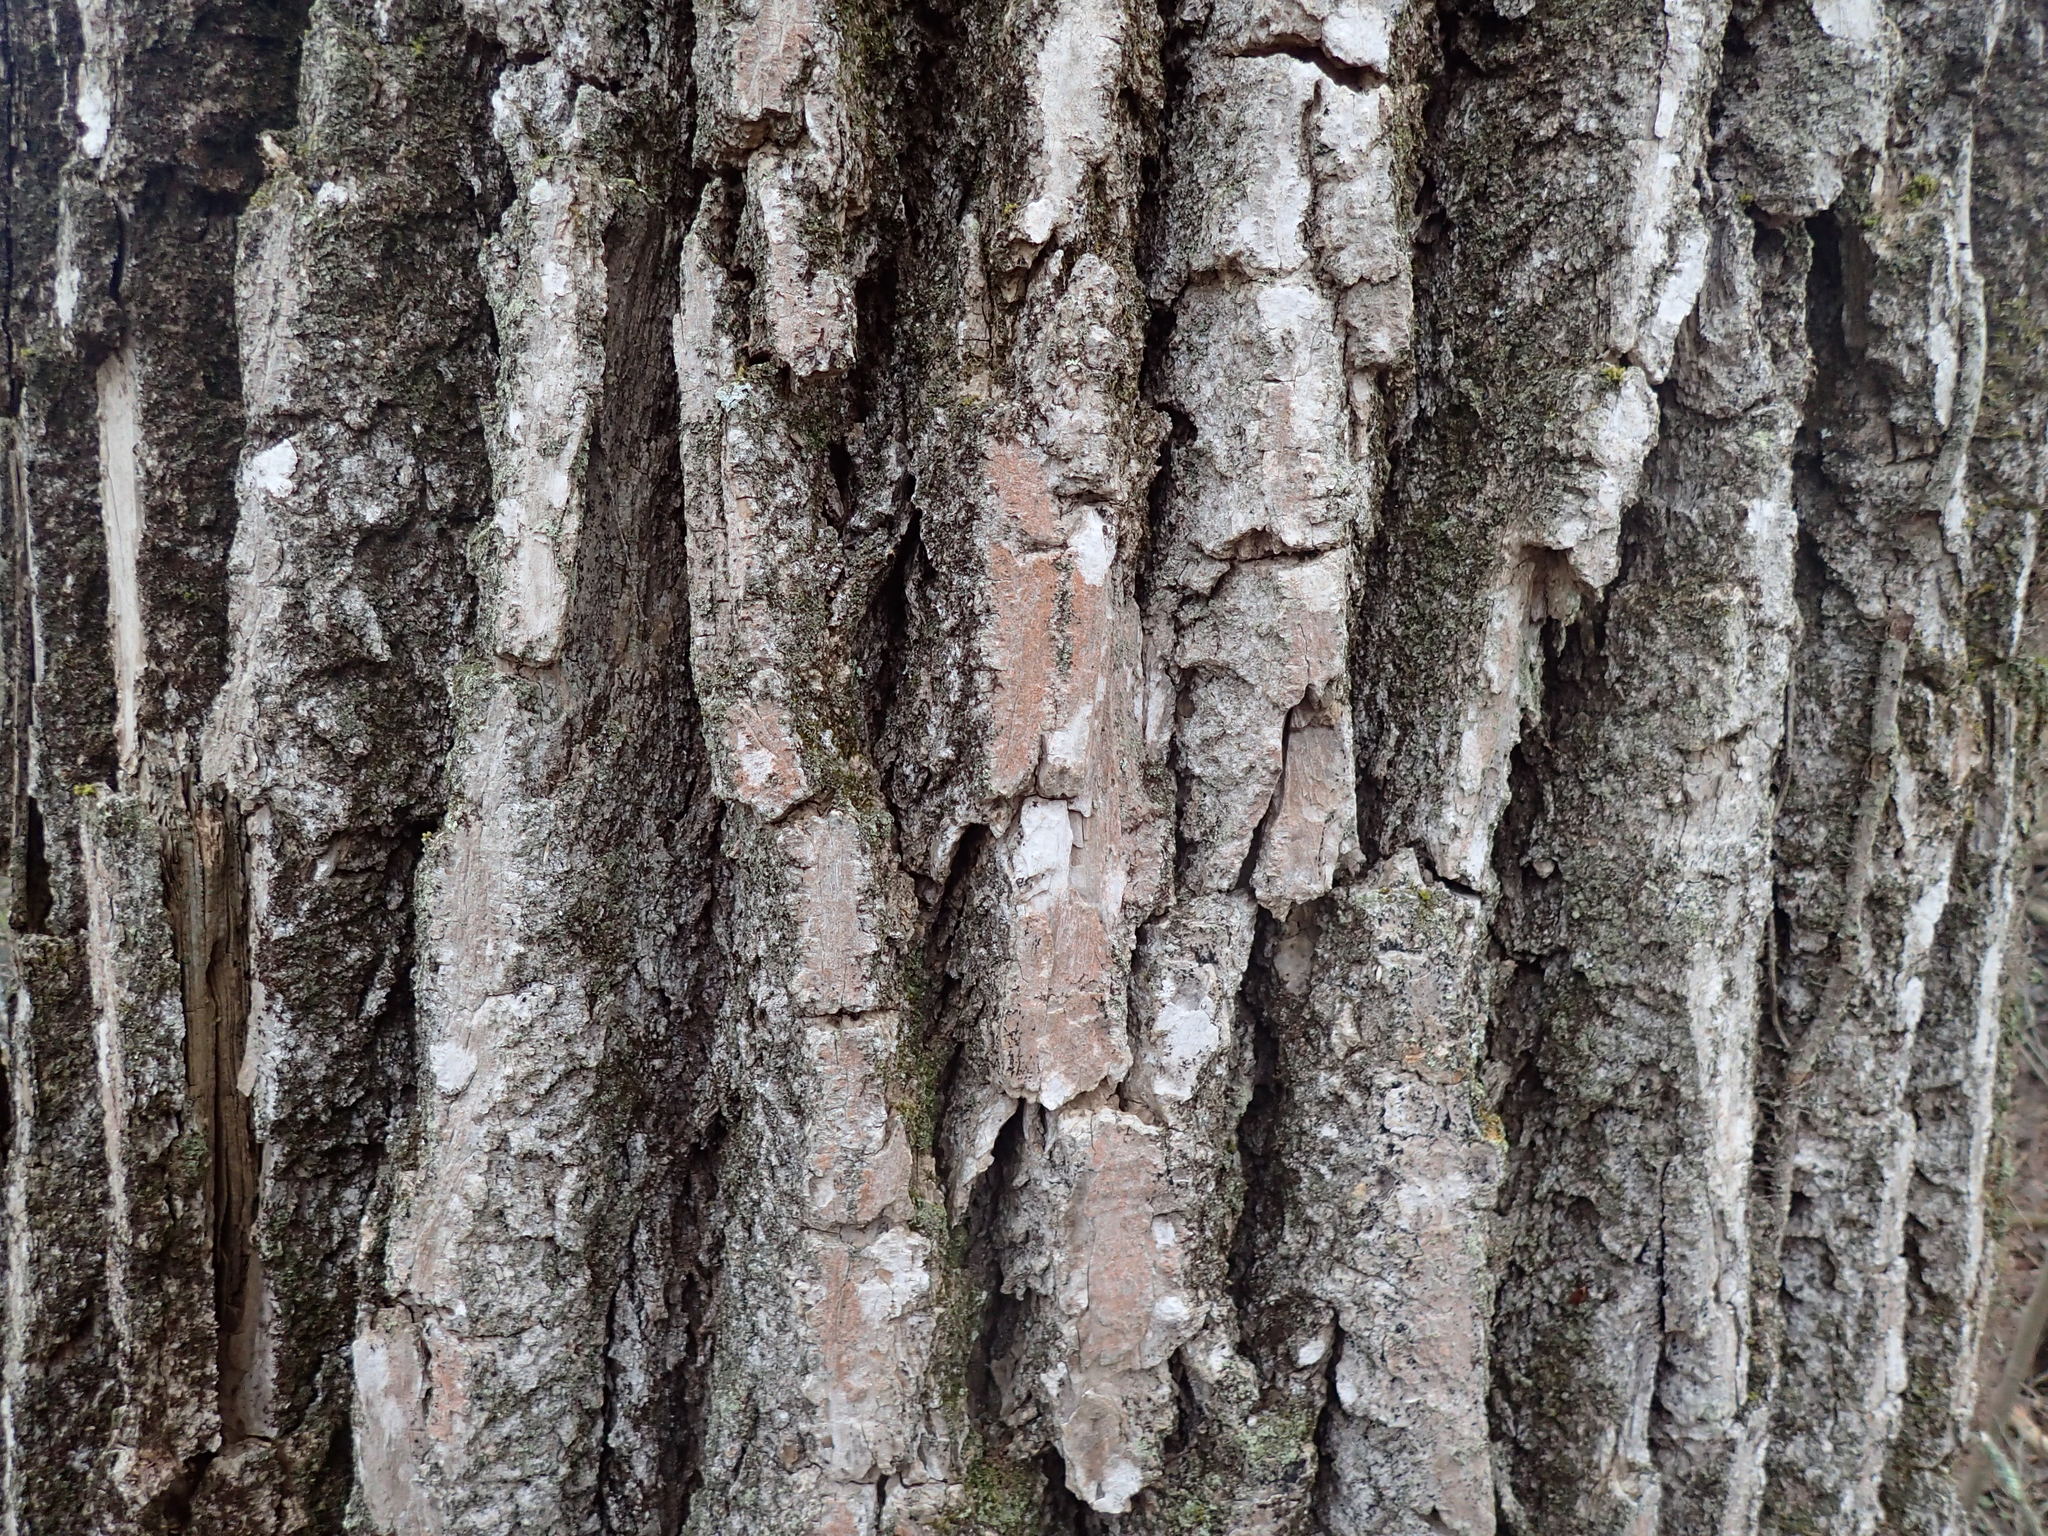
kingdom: Plantae
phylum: Tracheophyta
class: Magnoliopsida
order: Malpighiales
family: Salicaceae
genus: Populus
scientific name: Populus deltoides
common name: Eastern cottonwood
